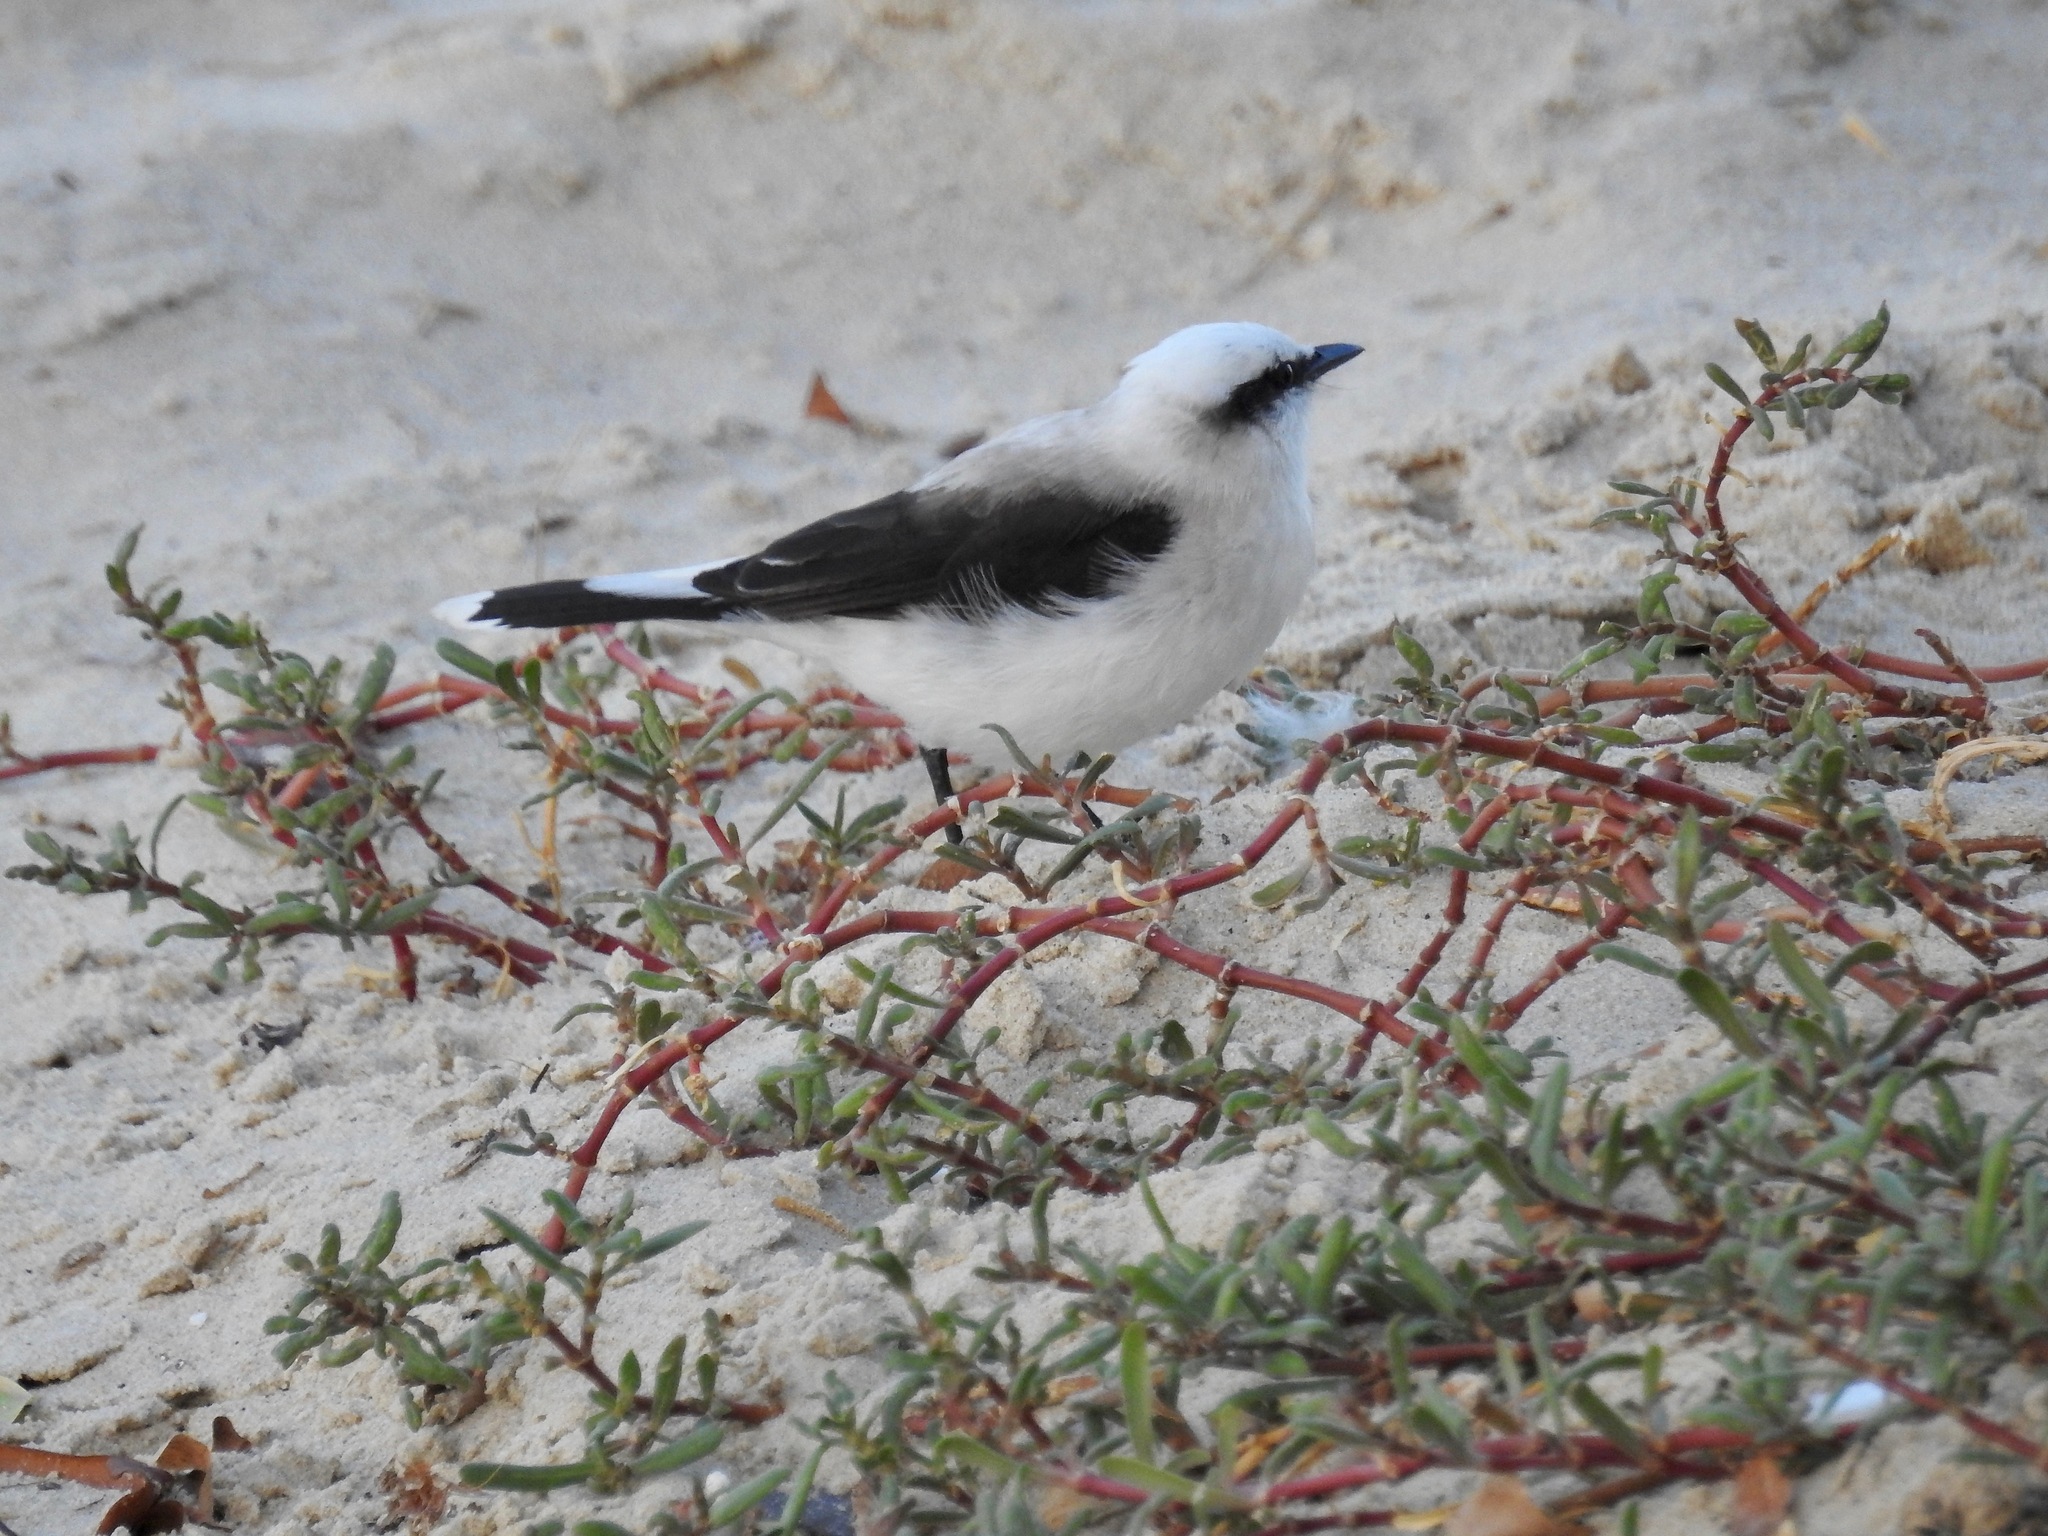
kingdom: Animalia
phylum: Chordata
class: Aves
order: Passeriformes
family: Tyrannidae
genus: Fluvicola
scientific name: Fluvicola nengeta
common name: Masked water tyrant
